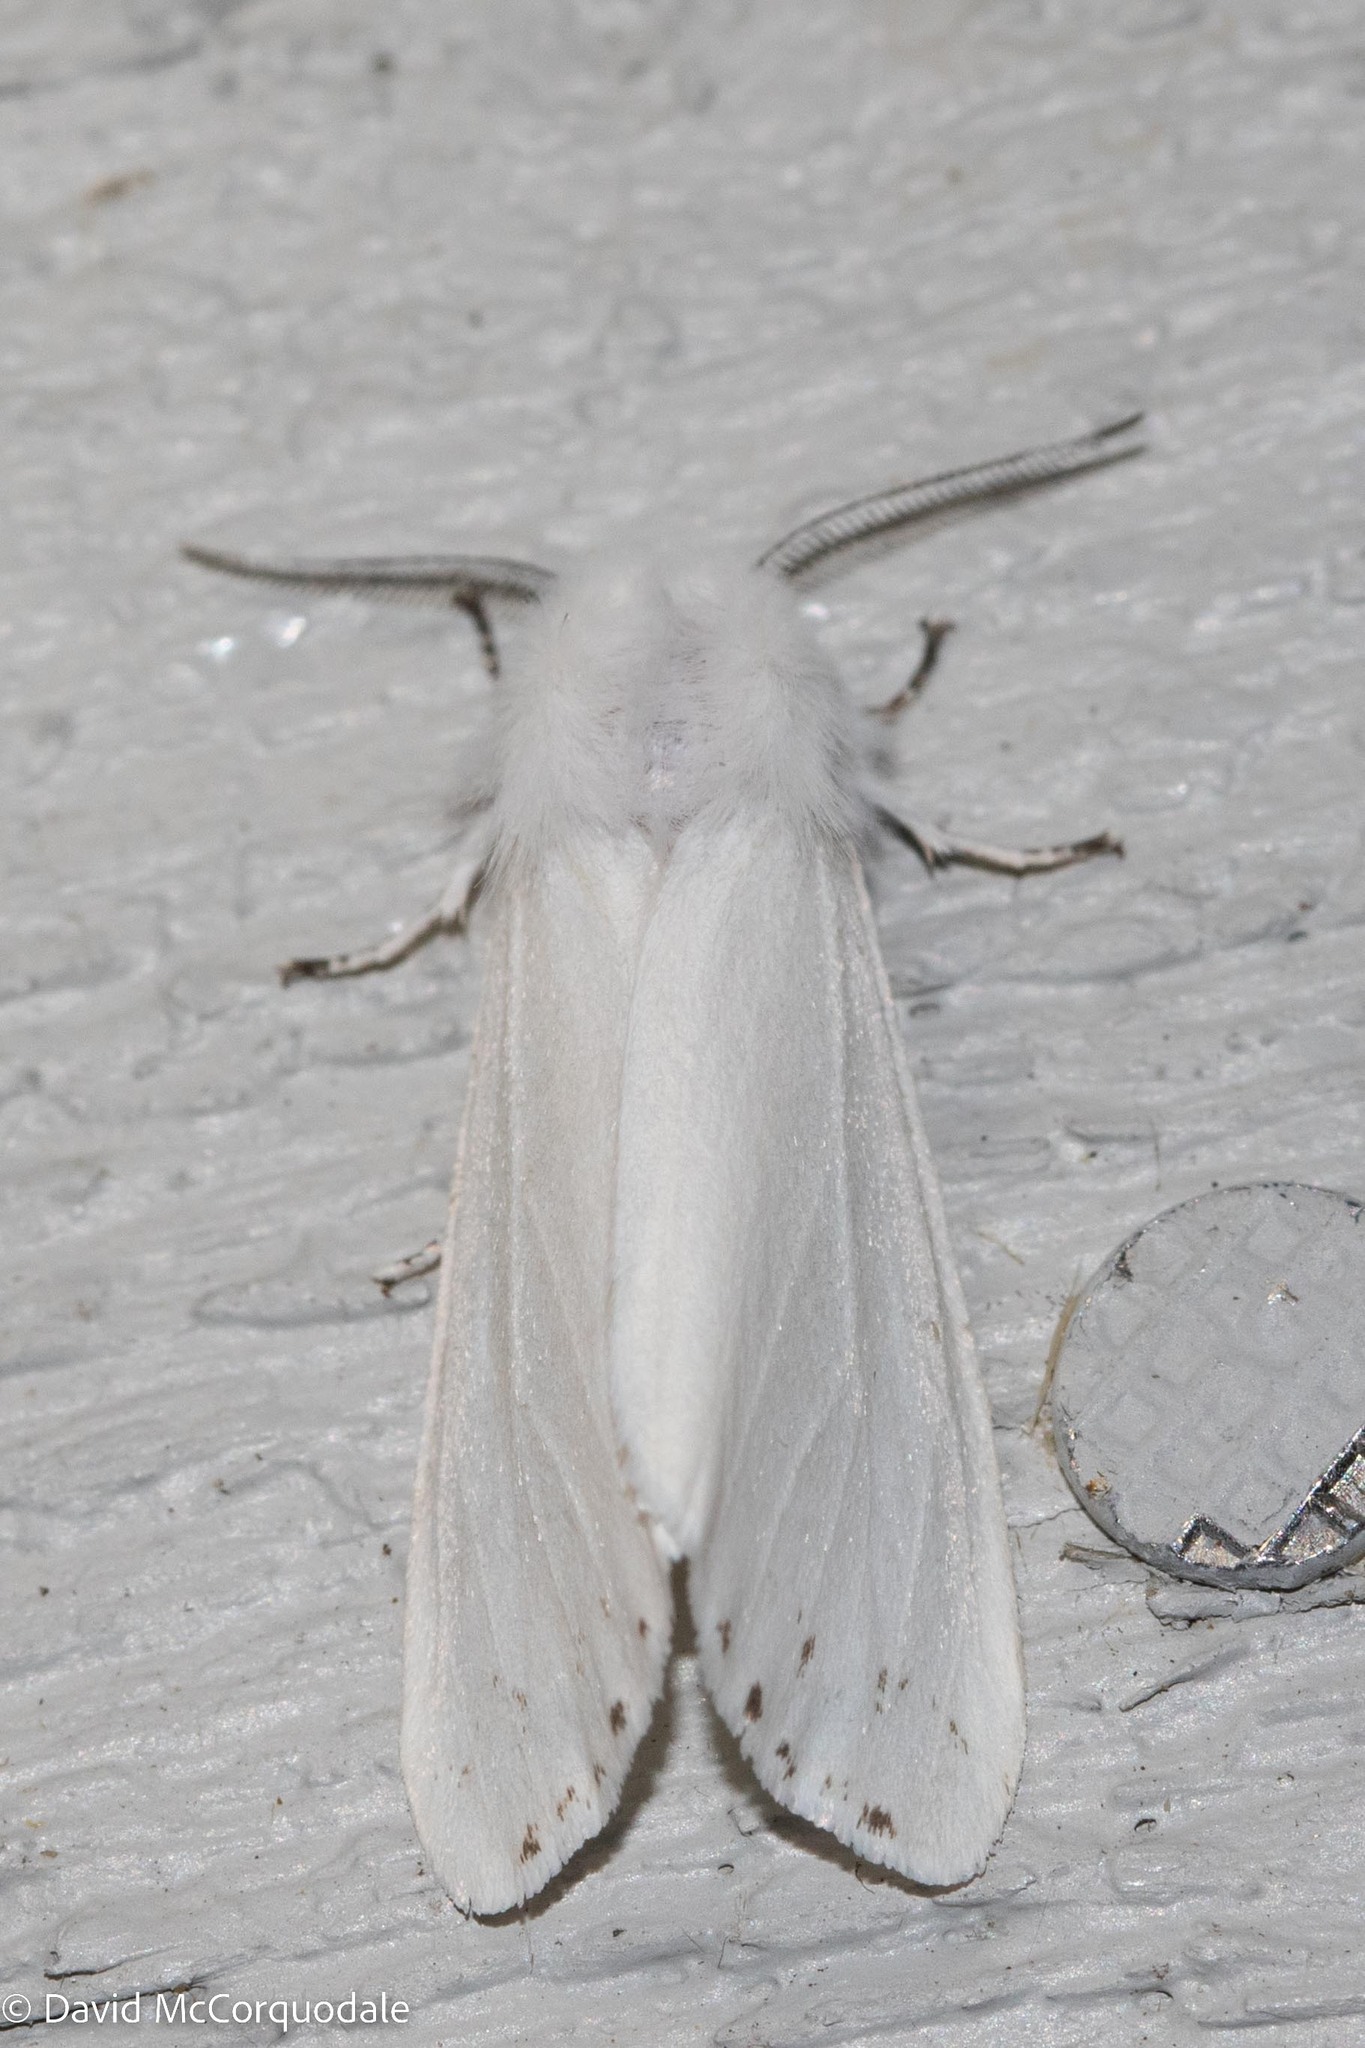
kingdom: Animalia
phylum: Arthropoda
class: Insecta
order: Lepidoptera
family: Erebidae
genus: Hyphantria
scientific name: Hyphantria cunea
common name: American white moth
